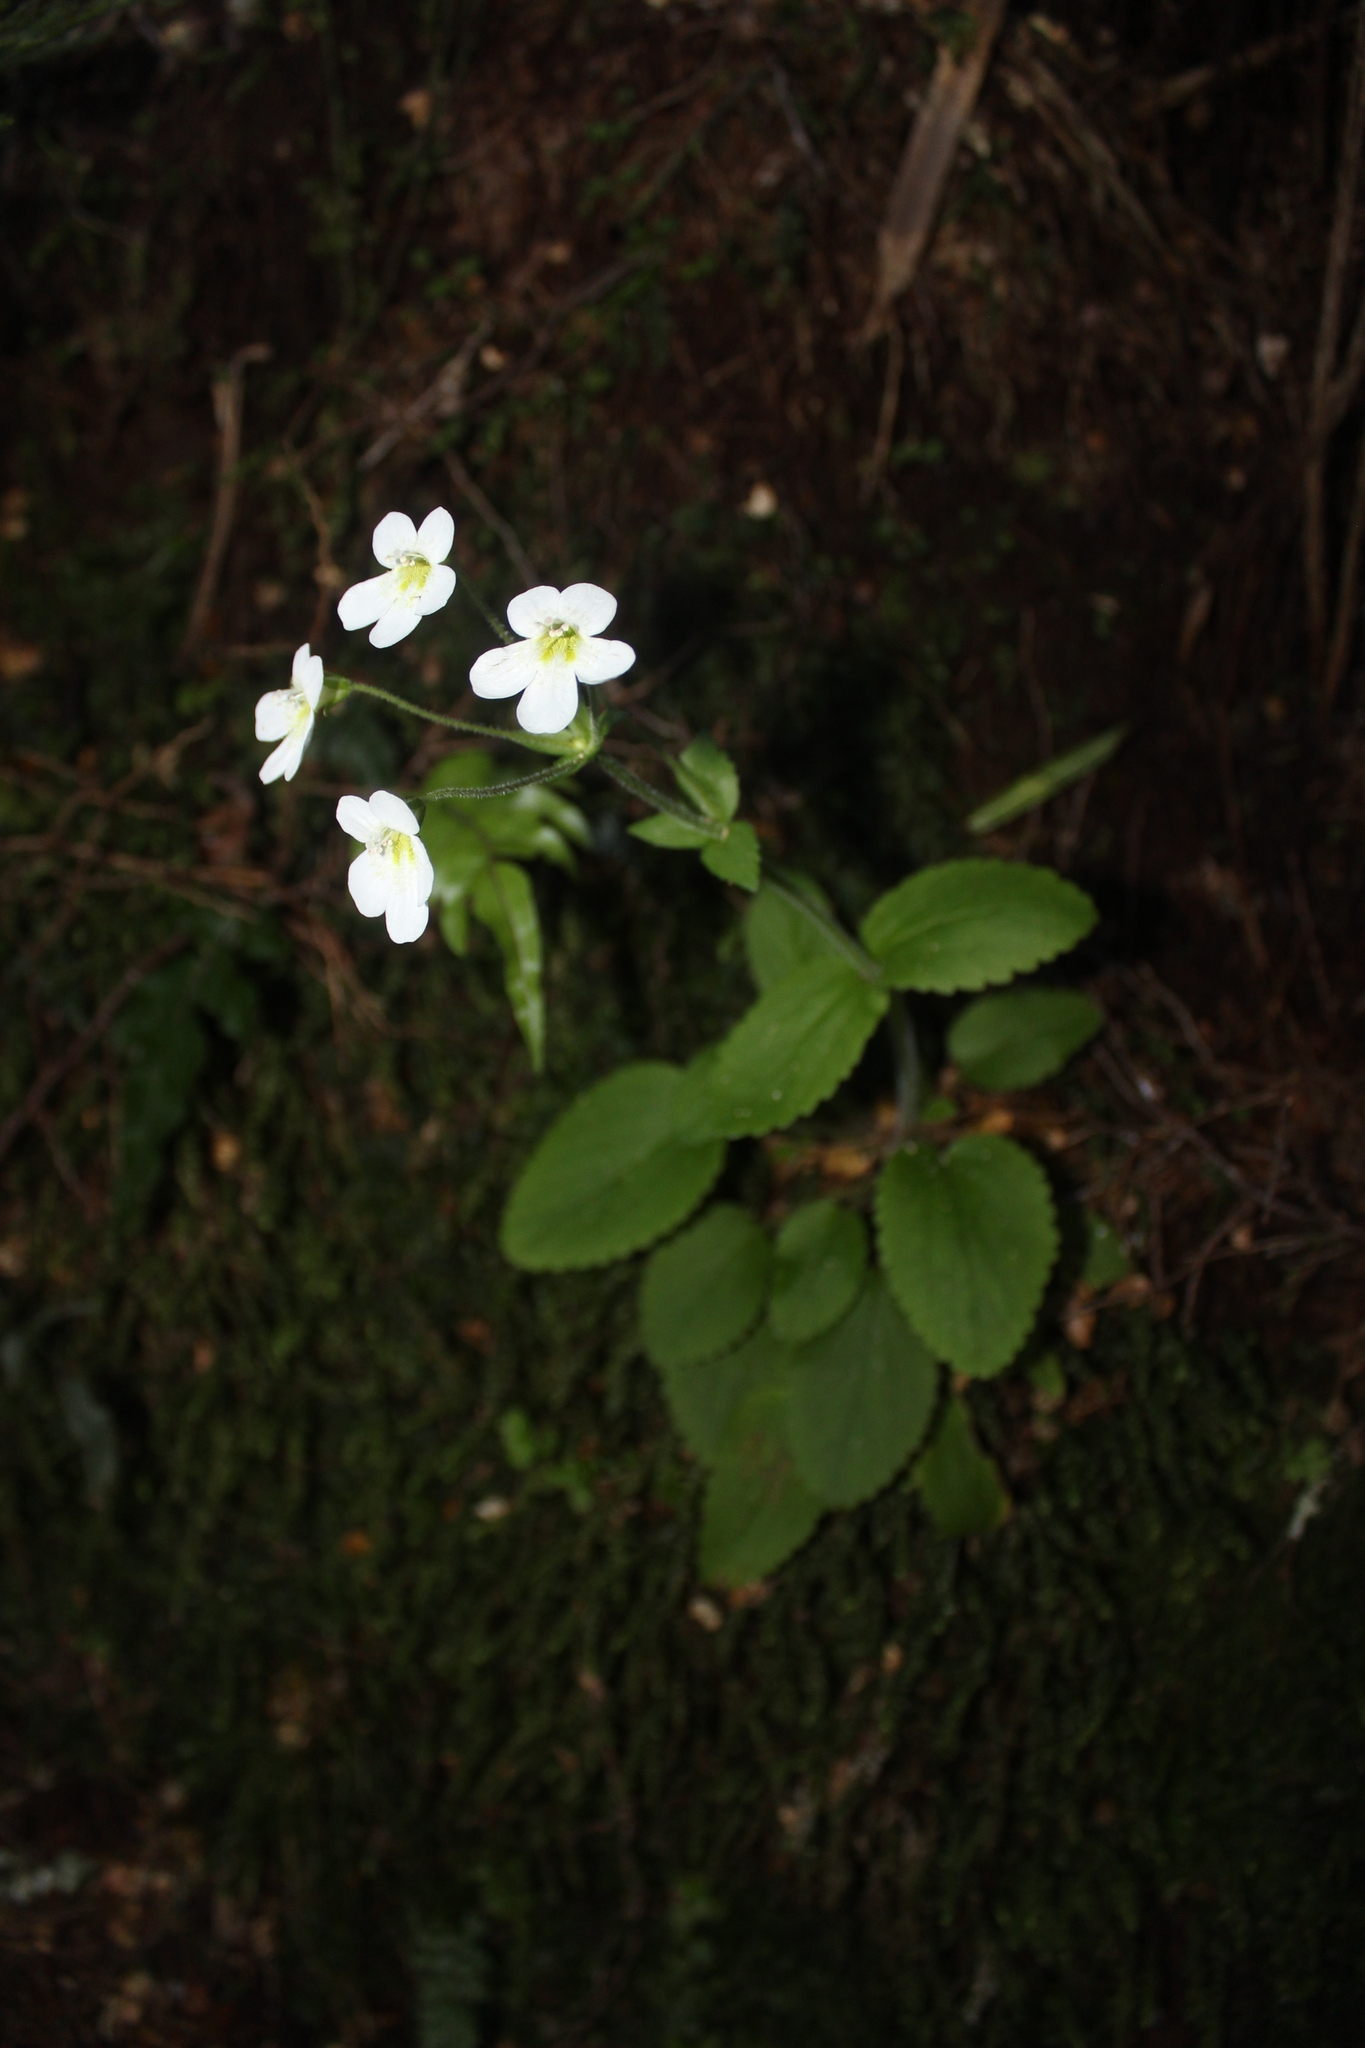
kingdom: Plantae
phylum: Tracheophyta
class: Magnoliopsida
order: Lamiales
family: Plantaginaceae
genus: Ourisia
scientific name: Ourisia macrophylla
